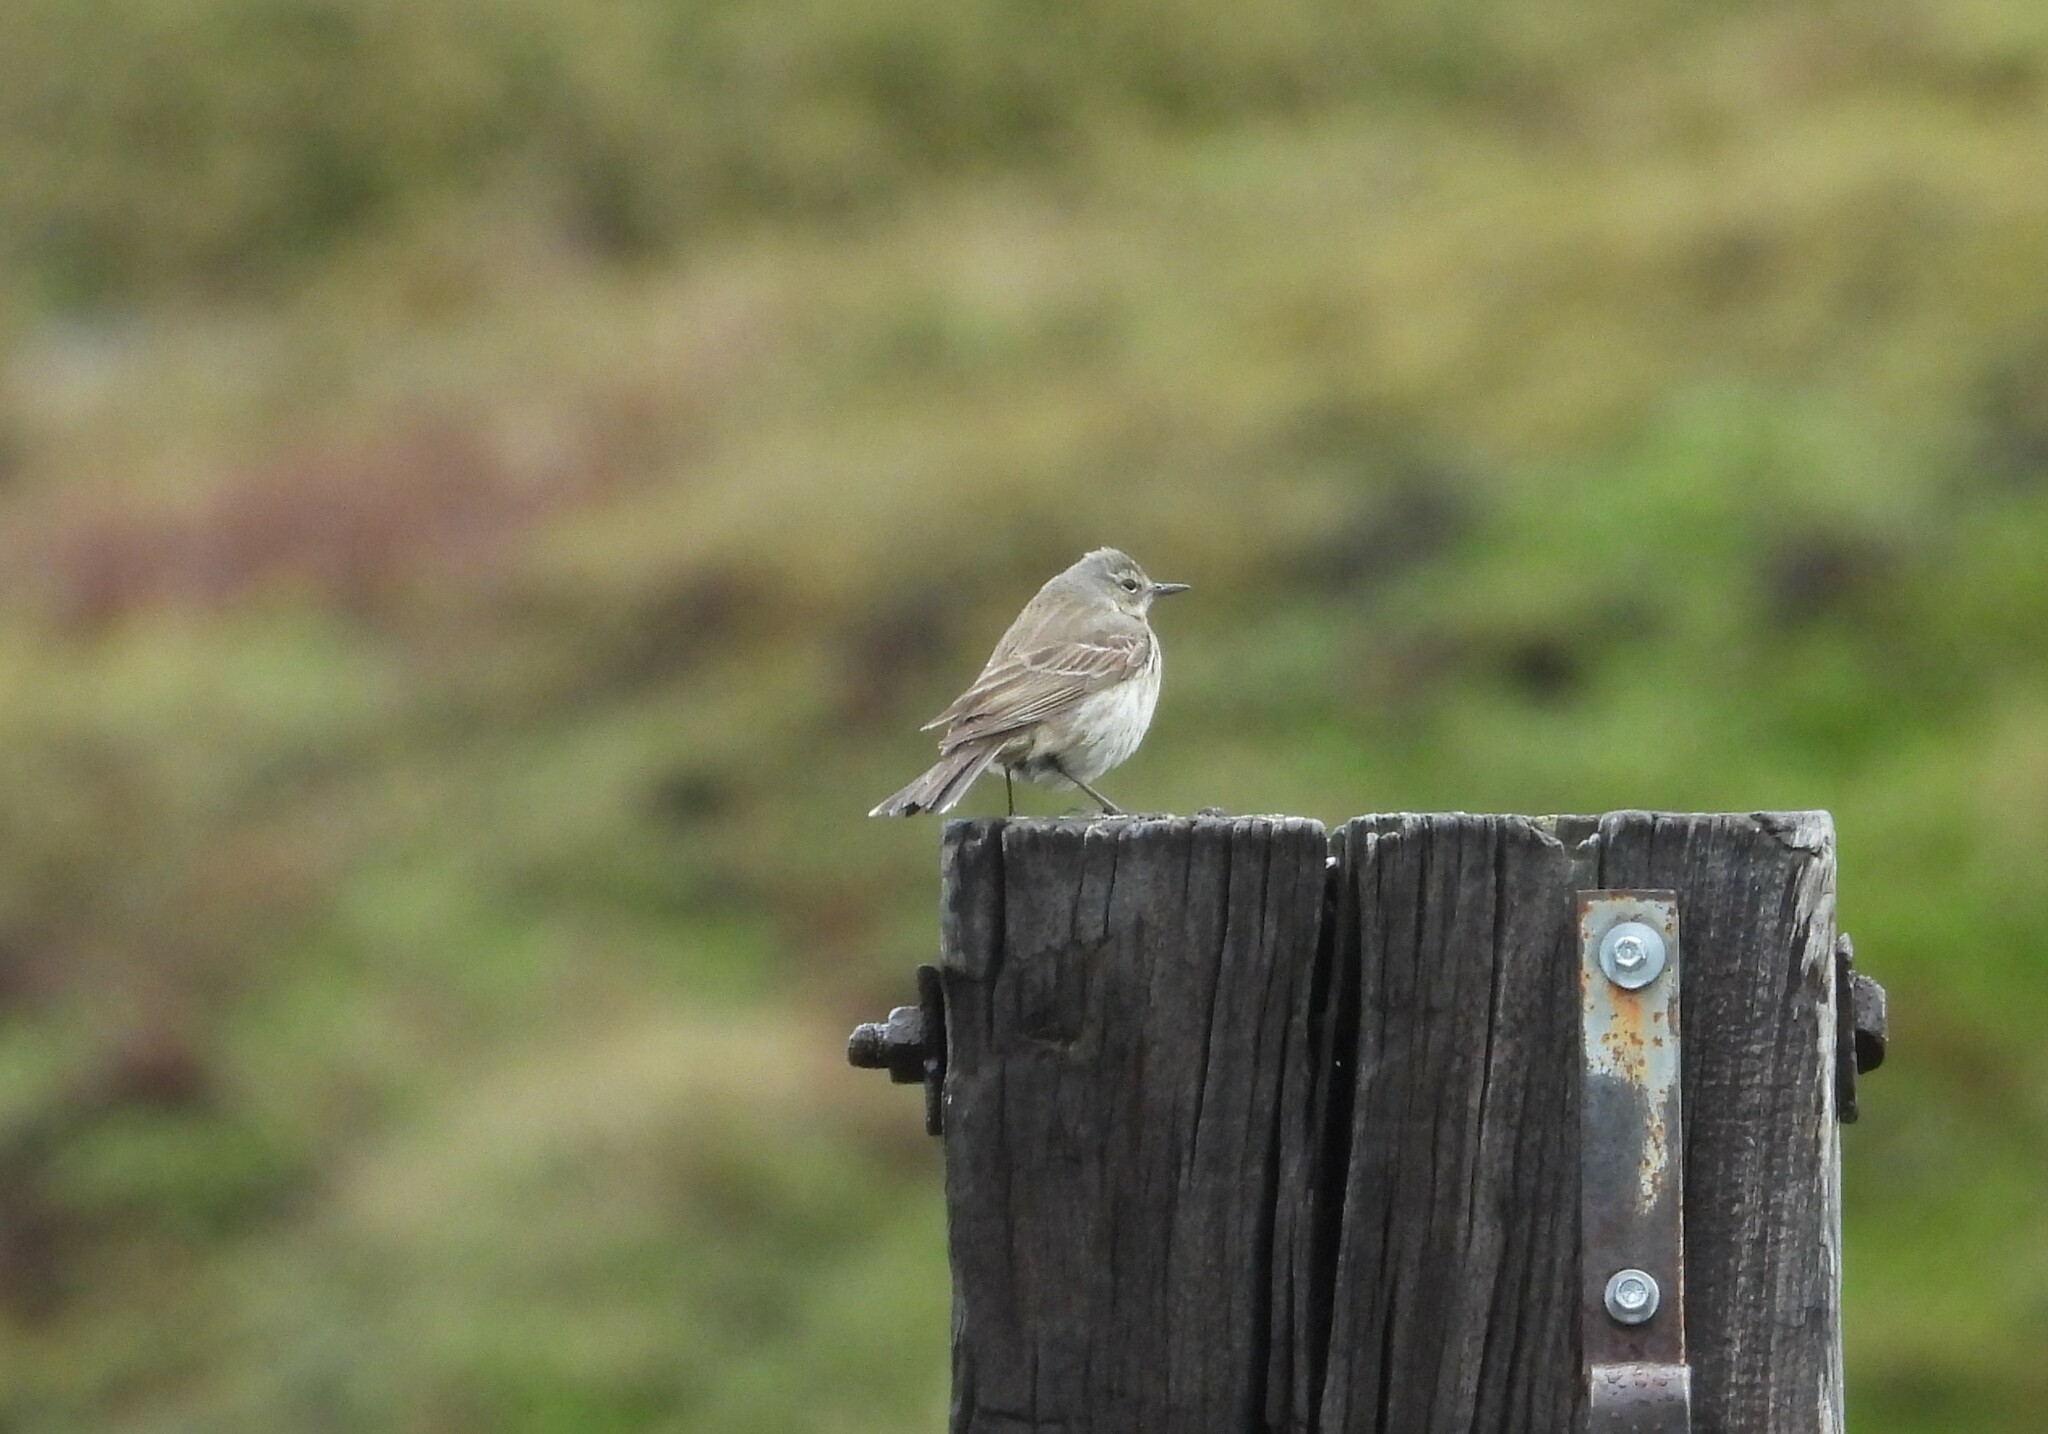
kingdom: Animalia
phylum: Chordata
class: Aves
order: Passeriformes
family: Motacillidae
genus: Anthus
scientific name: Anthus spinoletta
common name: Water pipit
